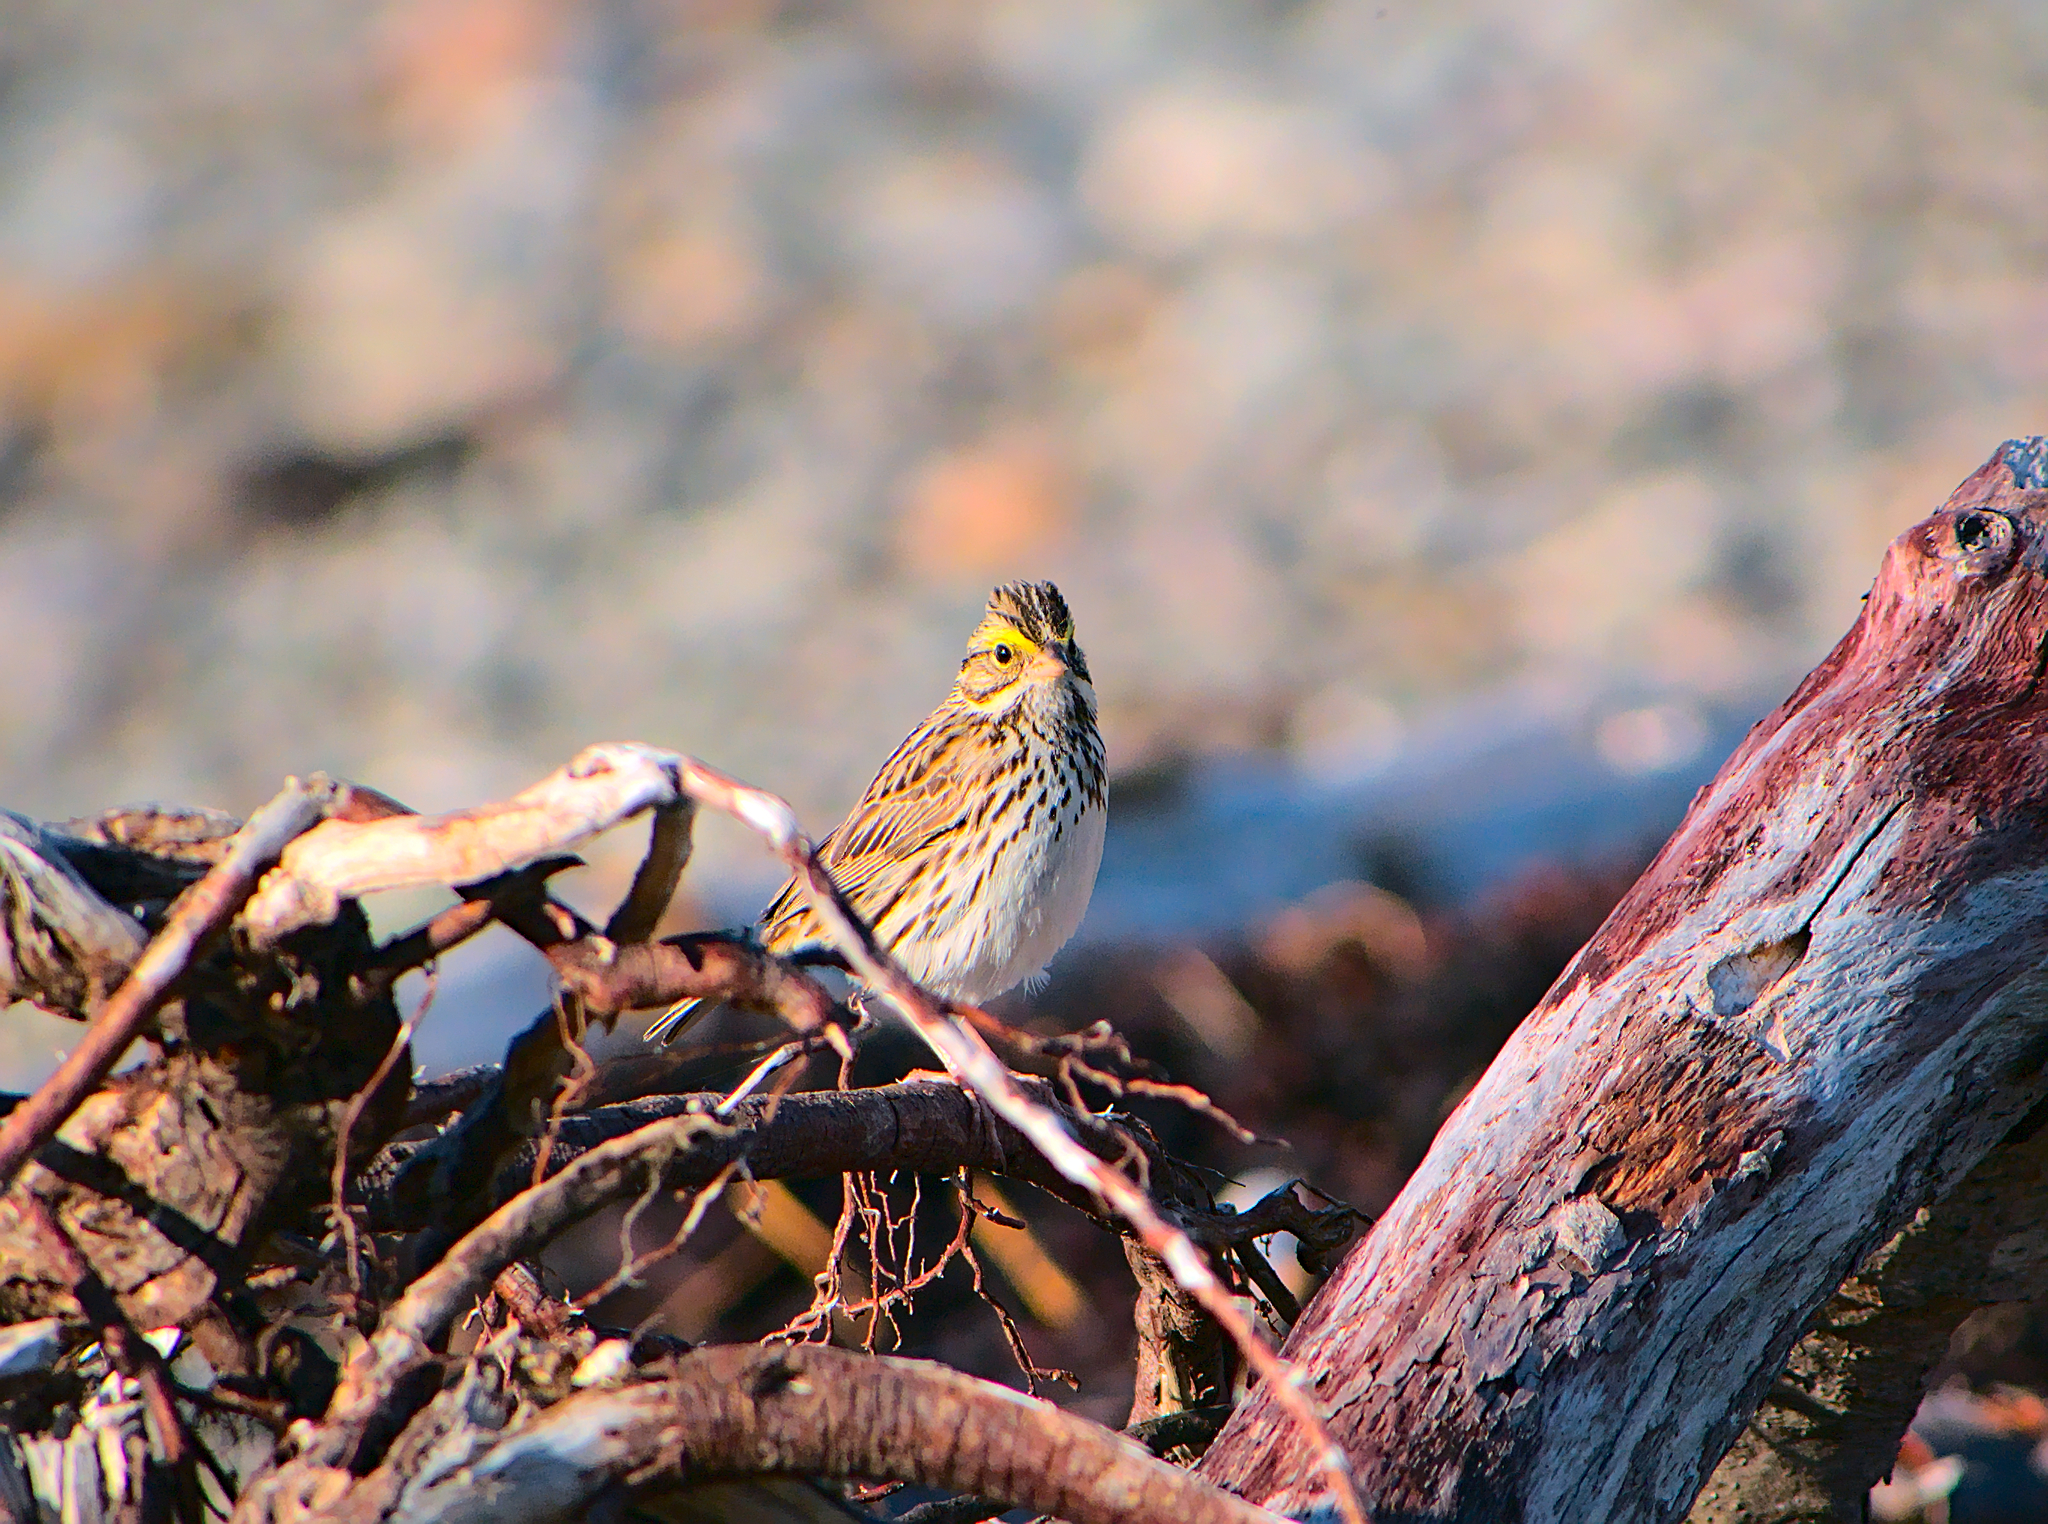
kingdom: Animalia
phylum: Chordata
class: Aves
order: Passeriformes
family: Passerellidae
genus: Passerculus
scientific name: Passerculus sandwichensis
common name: Savannah sparrow
